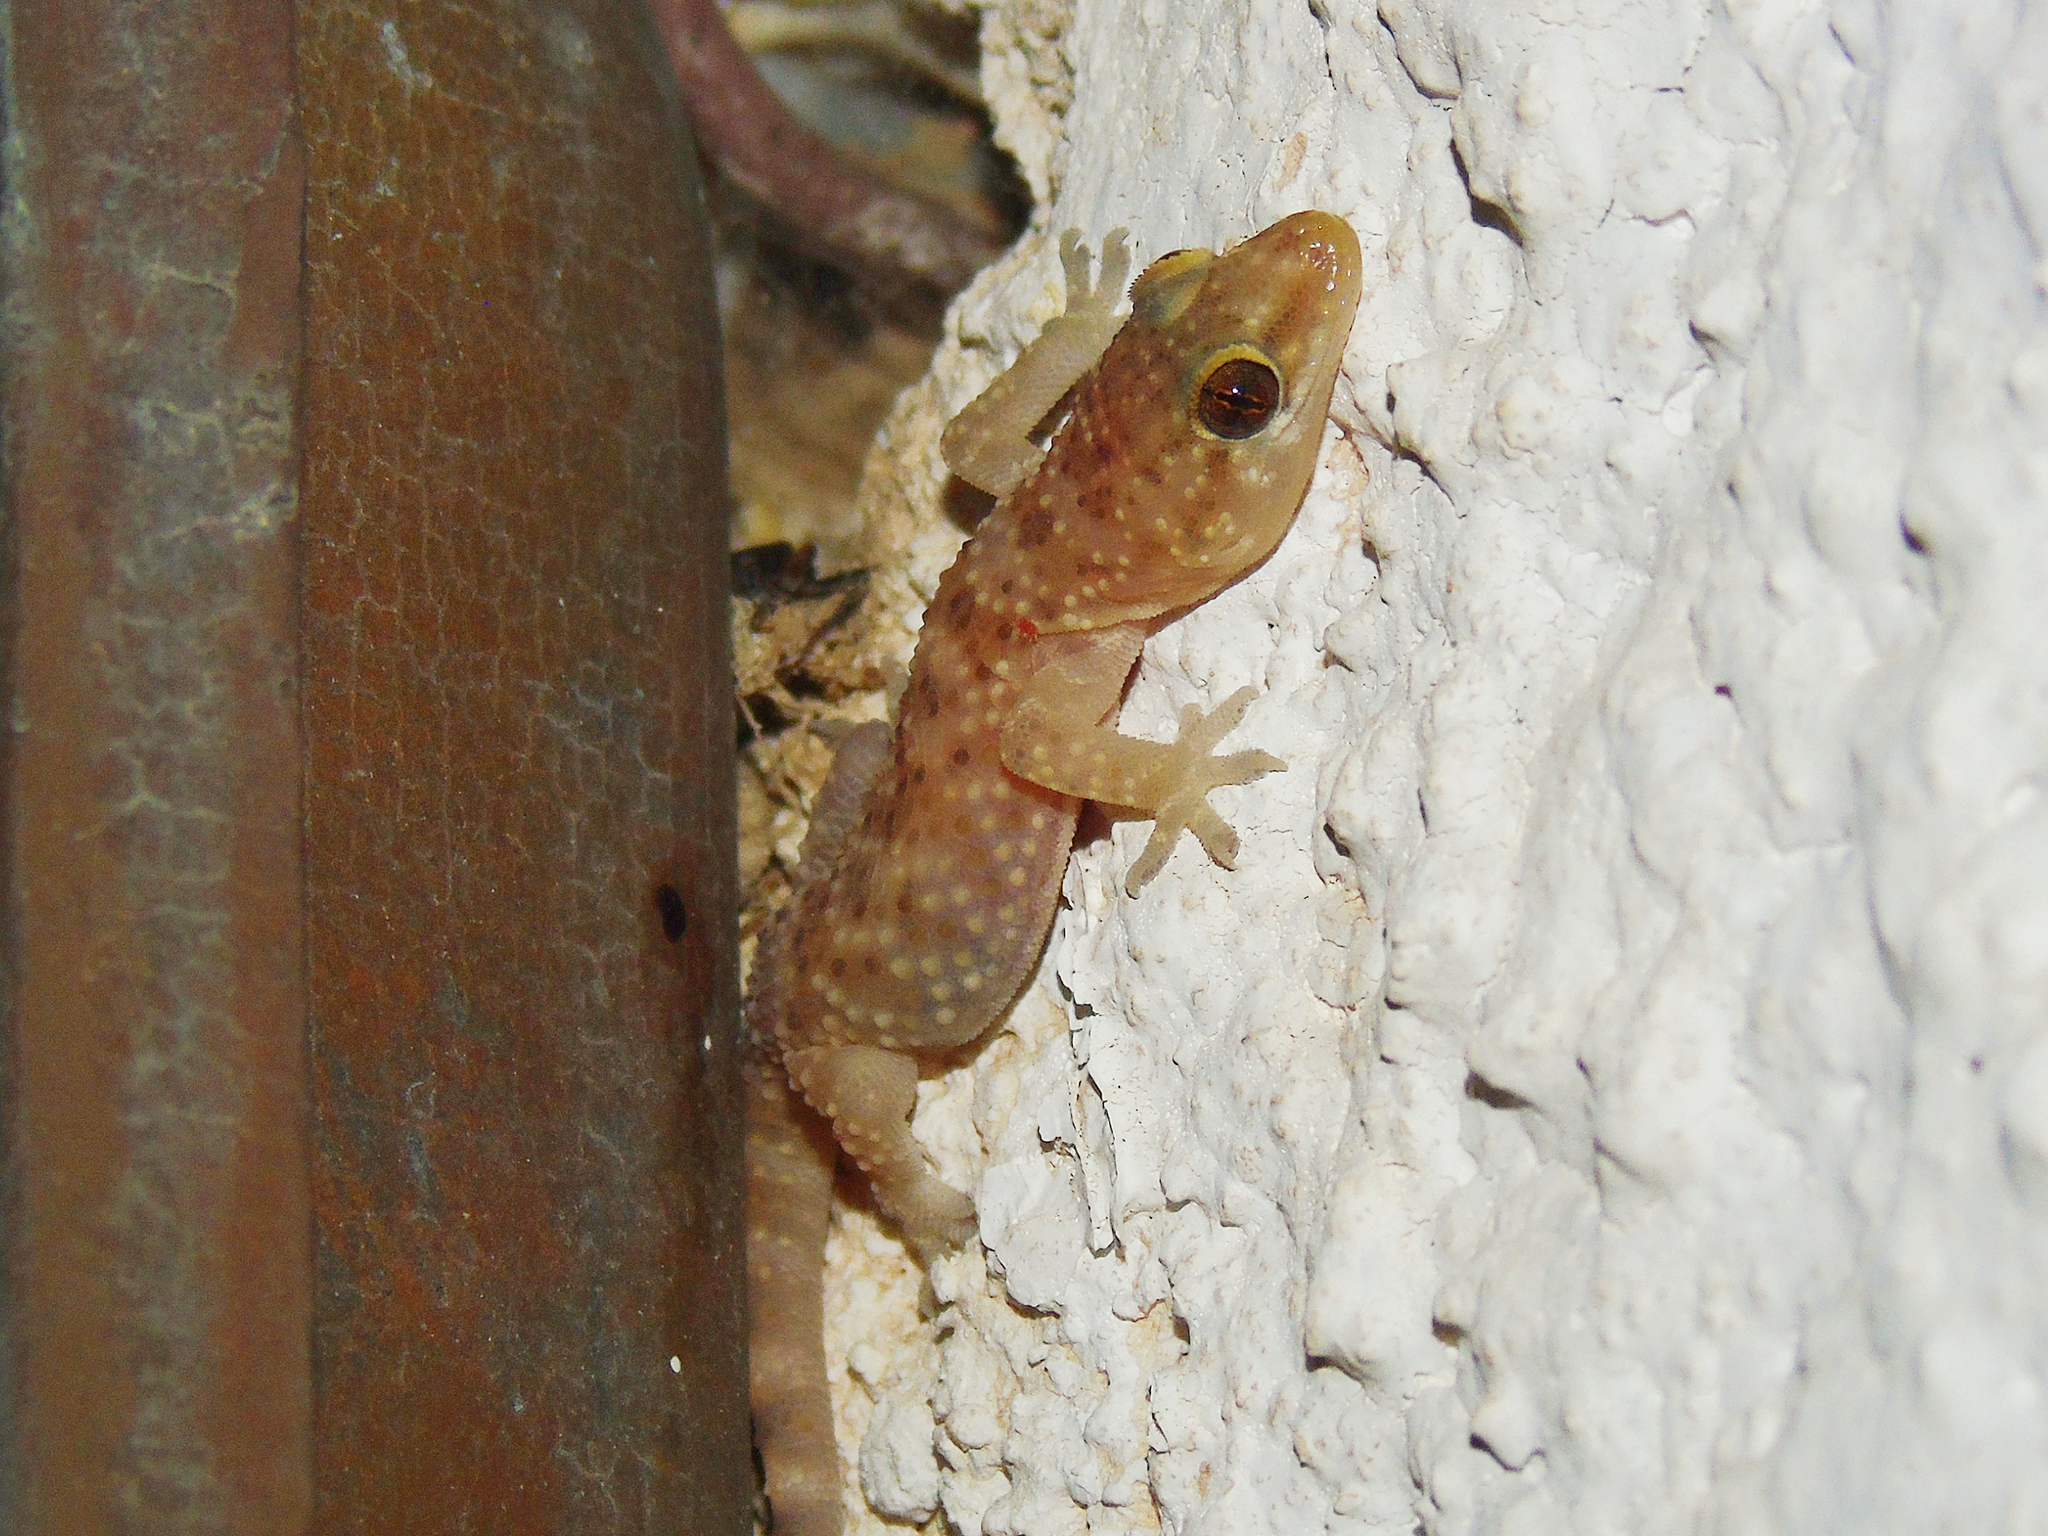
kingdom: Animalia
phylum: Chordata
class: Squamata
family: Gekkonidae
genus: Hemidactylus
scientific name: Hemidactylus turcicus
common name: Turkish gecko
